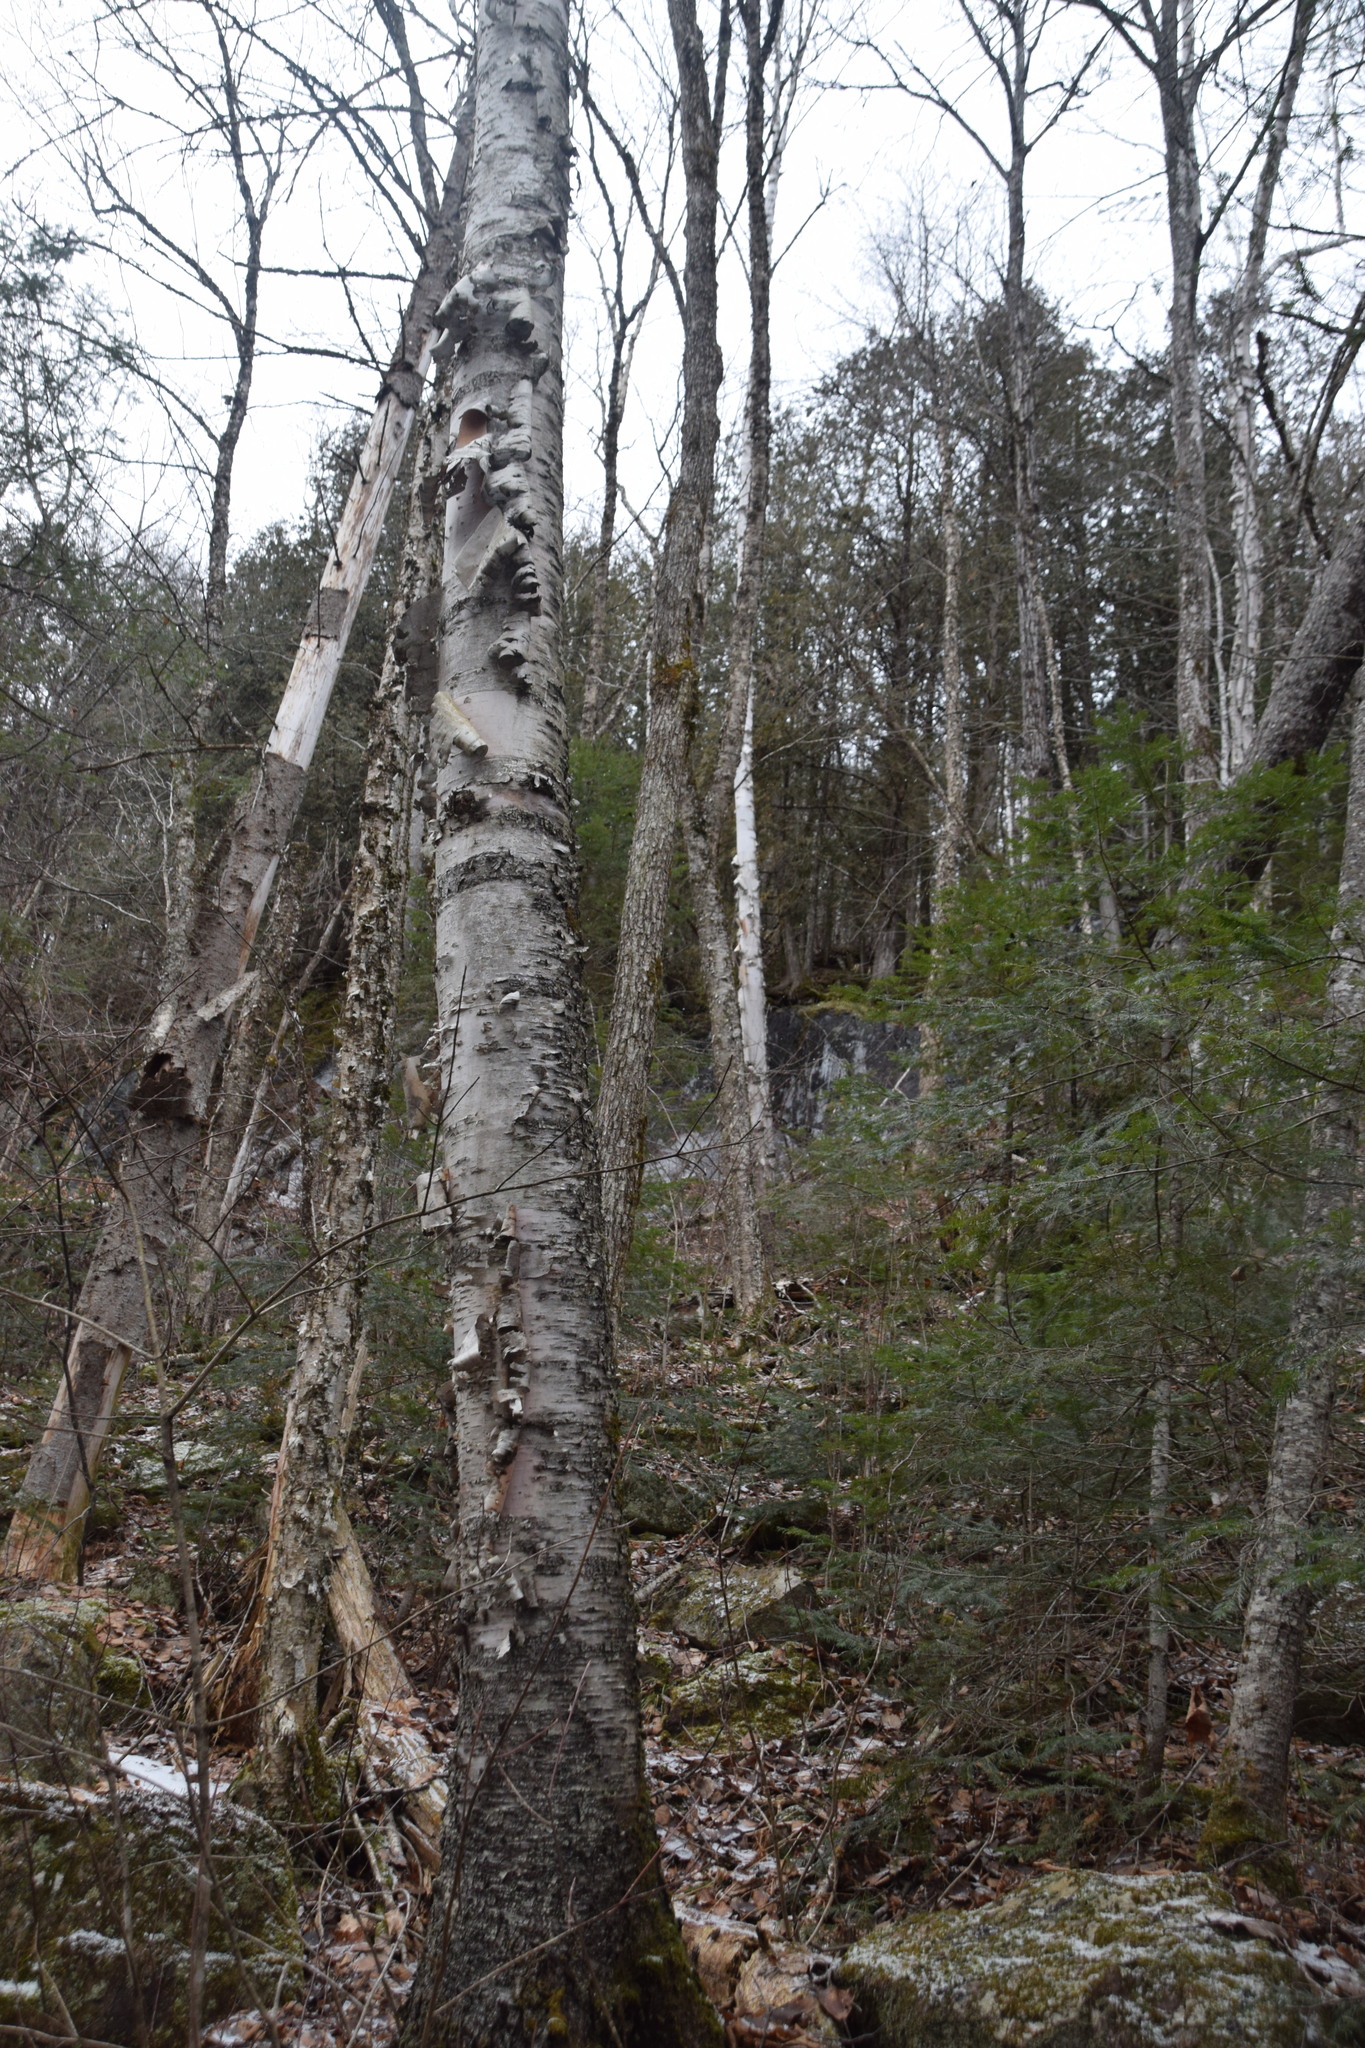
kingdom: Plantae
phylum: Tracheophyta
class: Magnoliopsida
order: Fagales
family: Betulaceae
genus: Betula
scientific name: Betula papyrifera
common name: Paper birch
